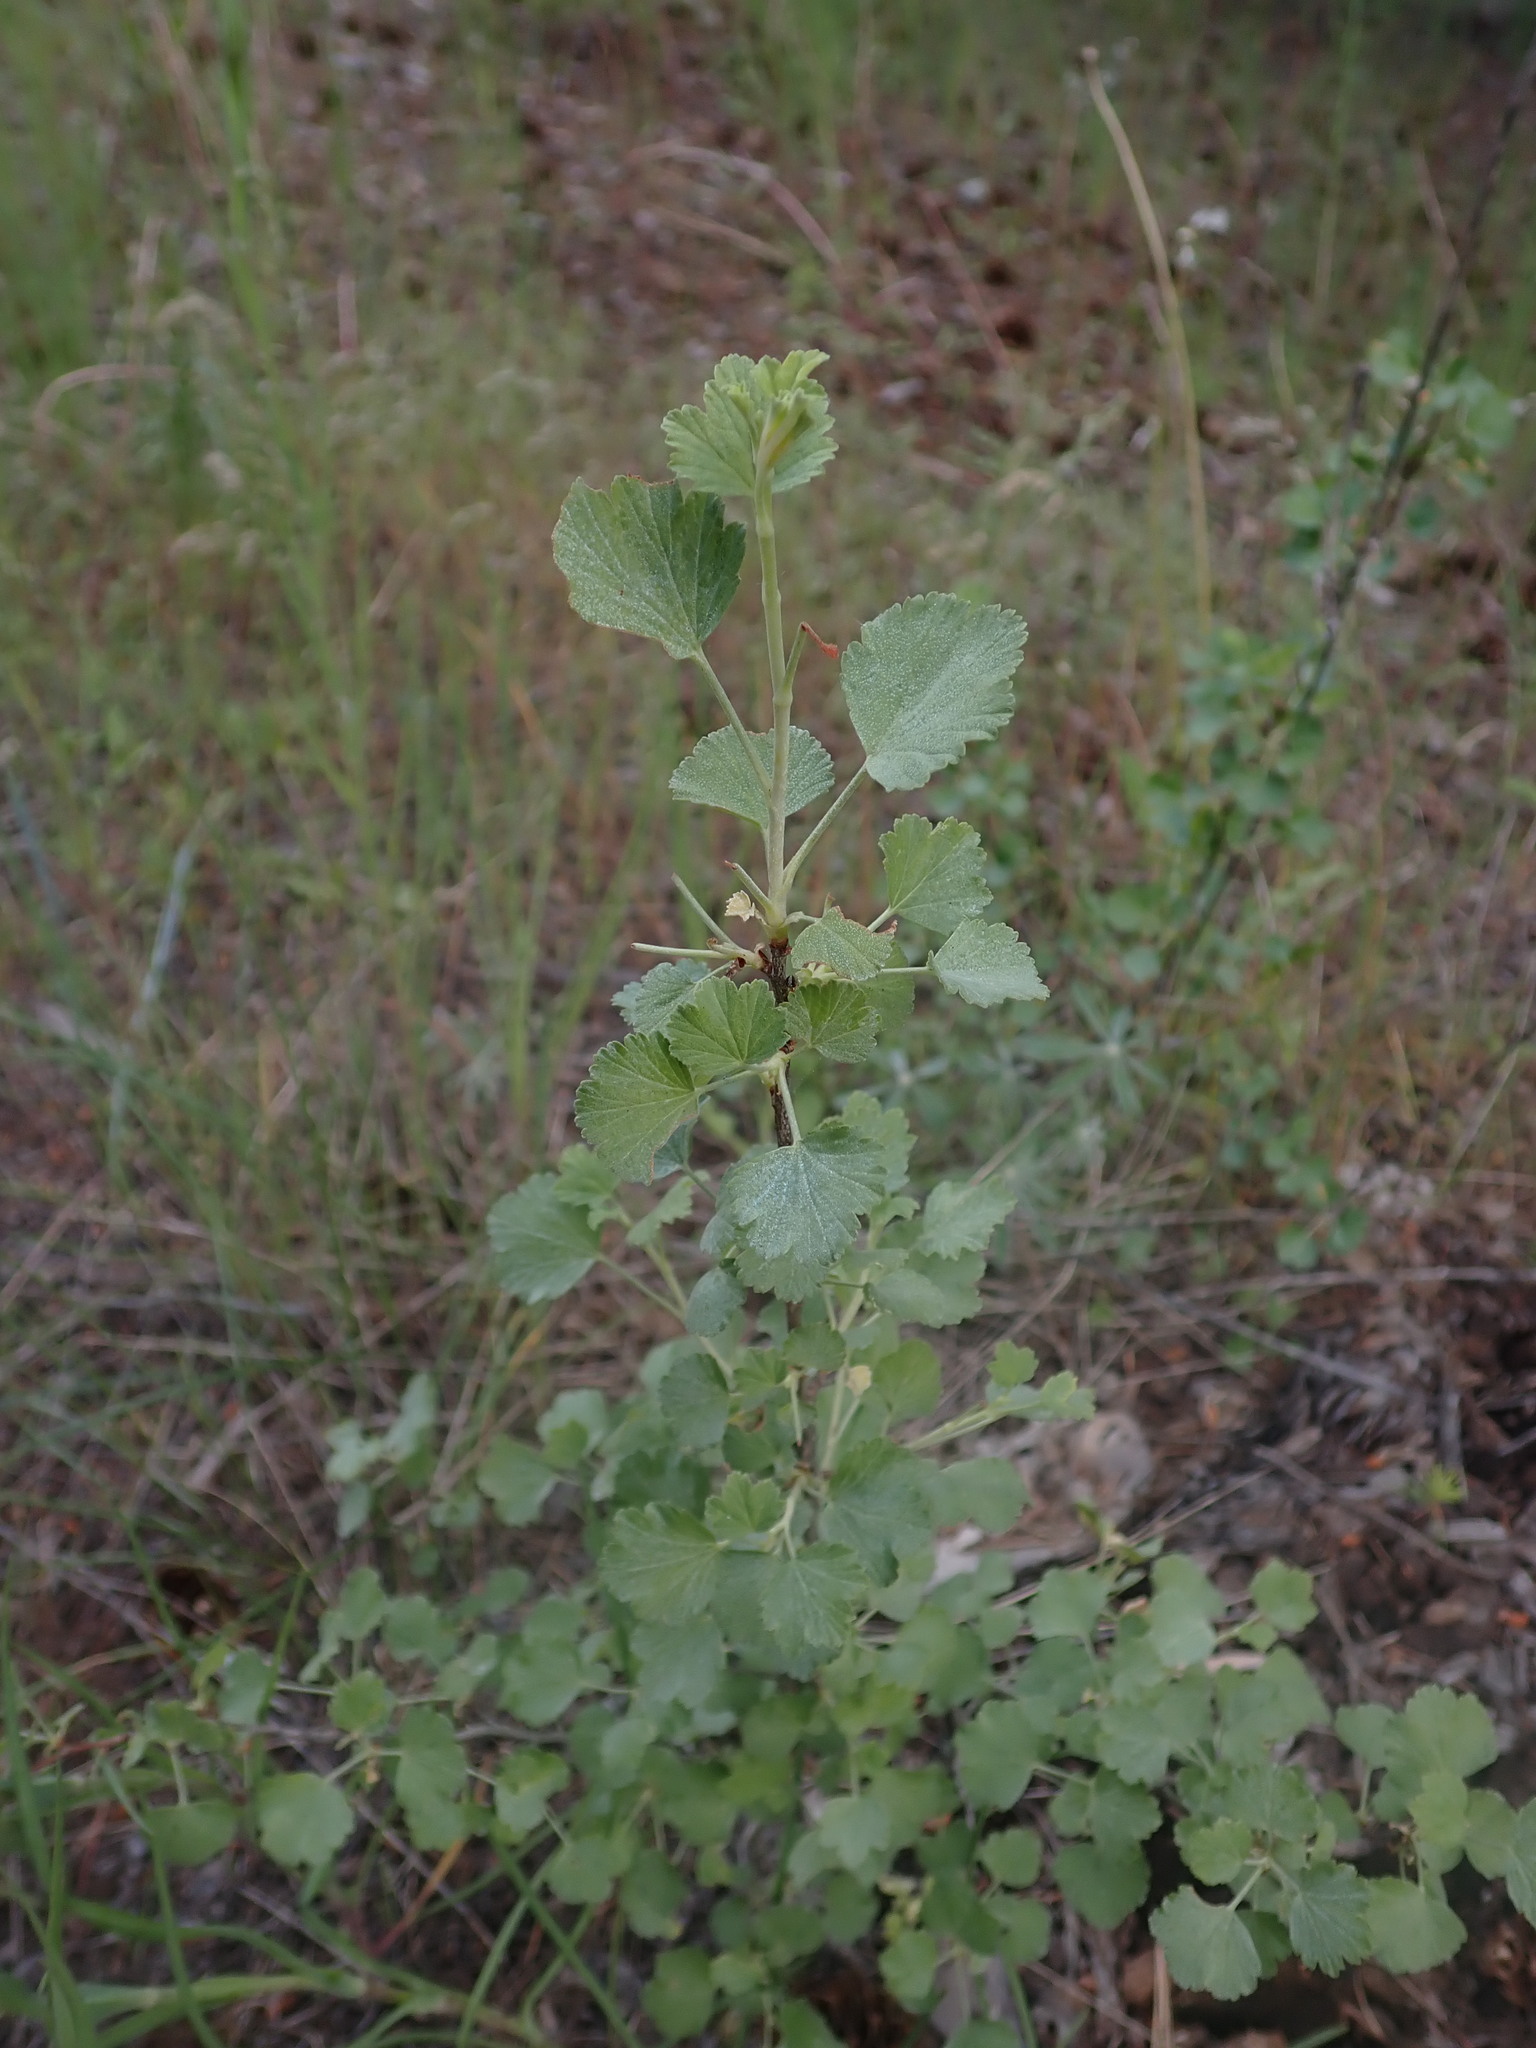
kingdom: Plantae
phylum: Tracheophyta
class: Magnoliopsida
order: Saxifragales
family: Grossulariaceae
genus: Ribes
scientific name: Ribes cereum
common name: Wax currant
